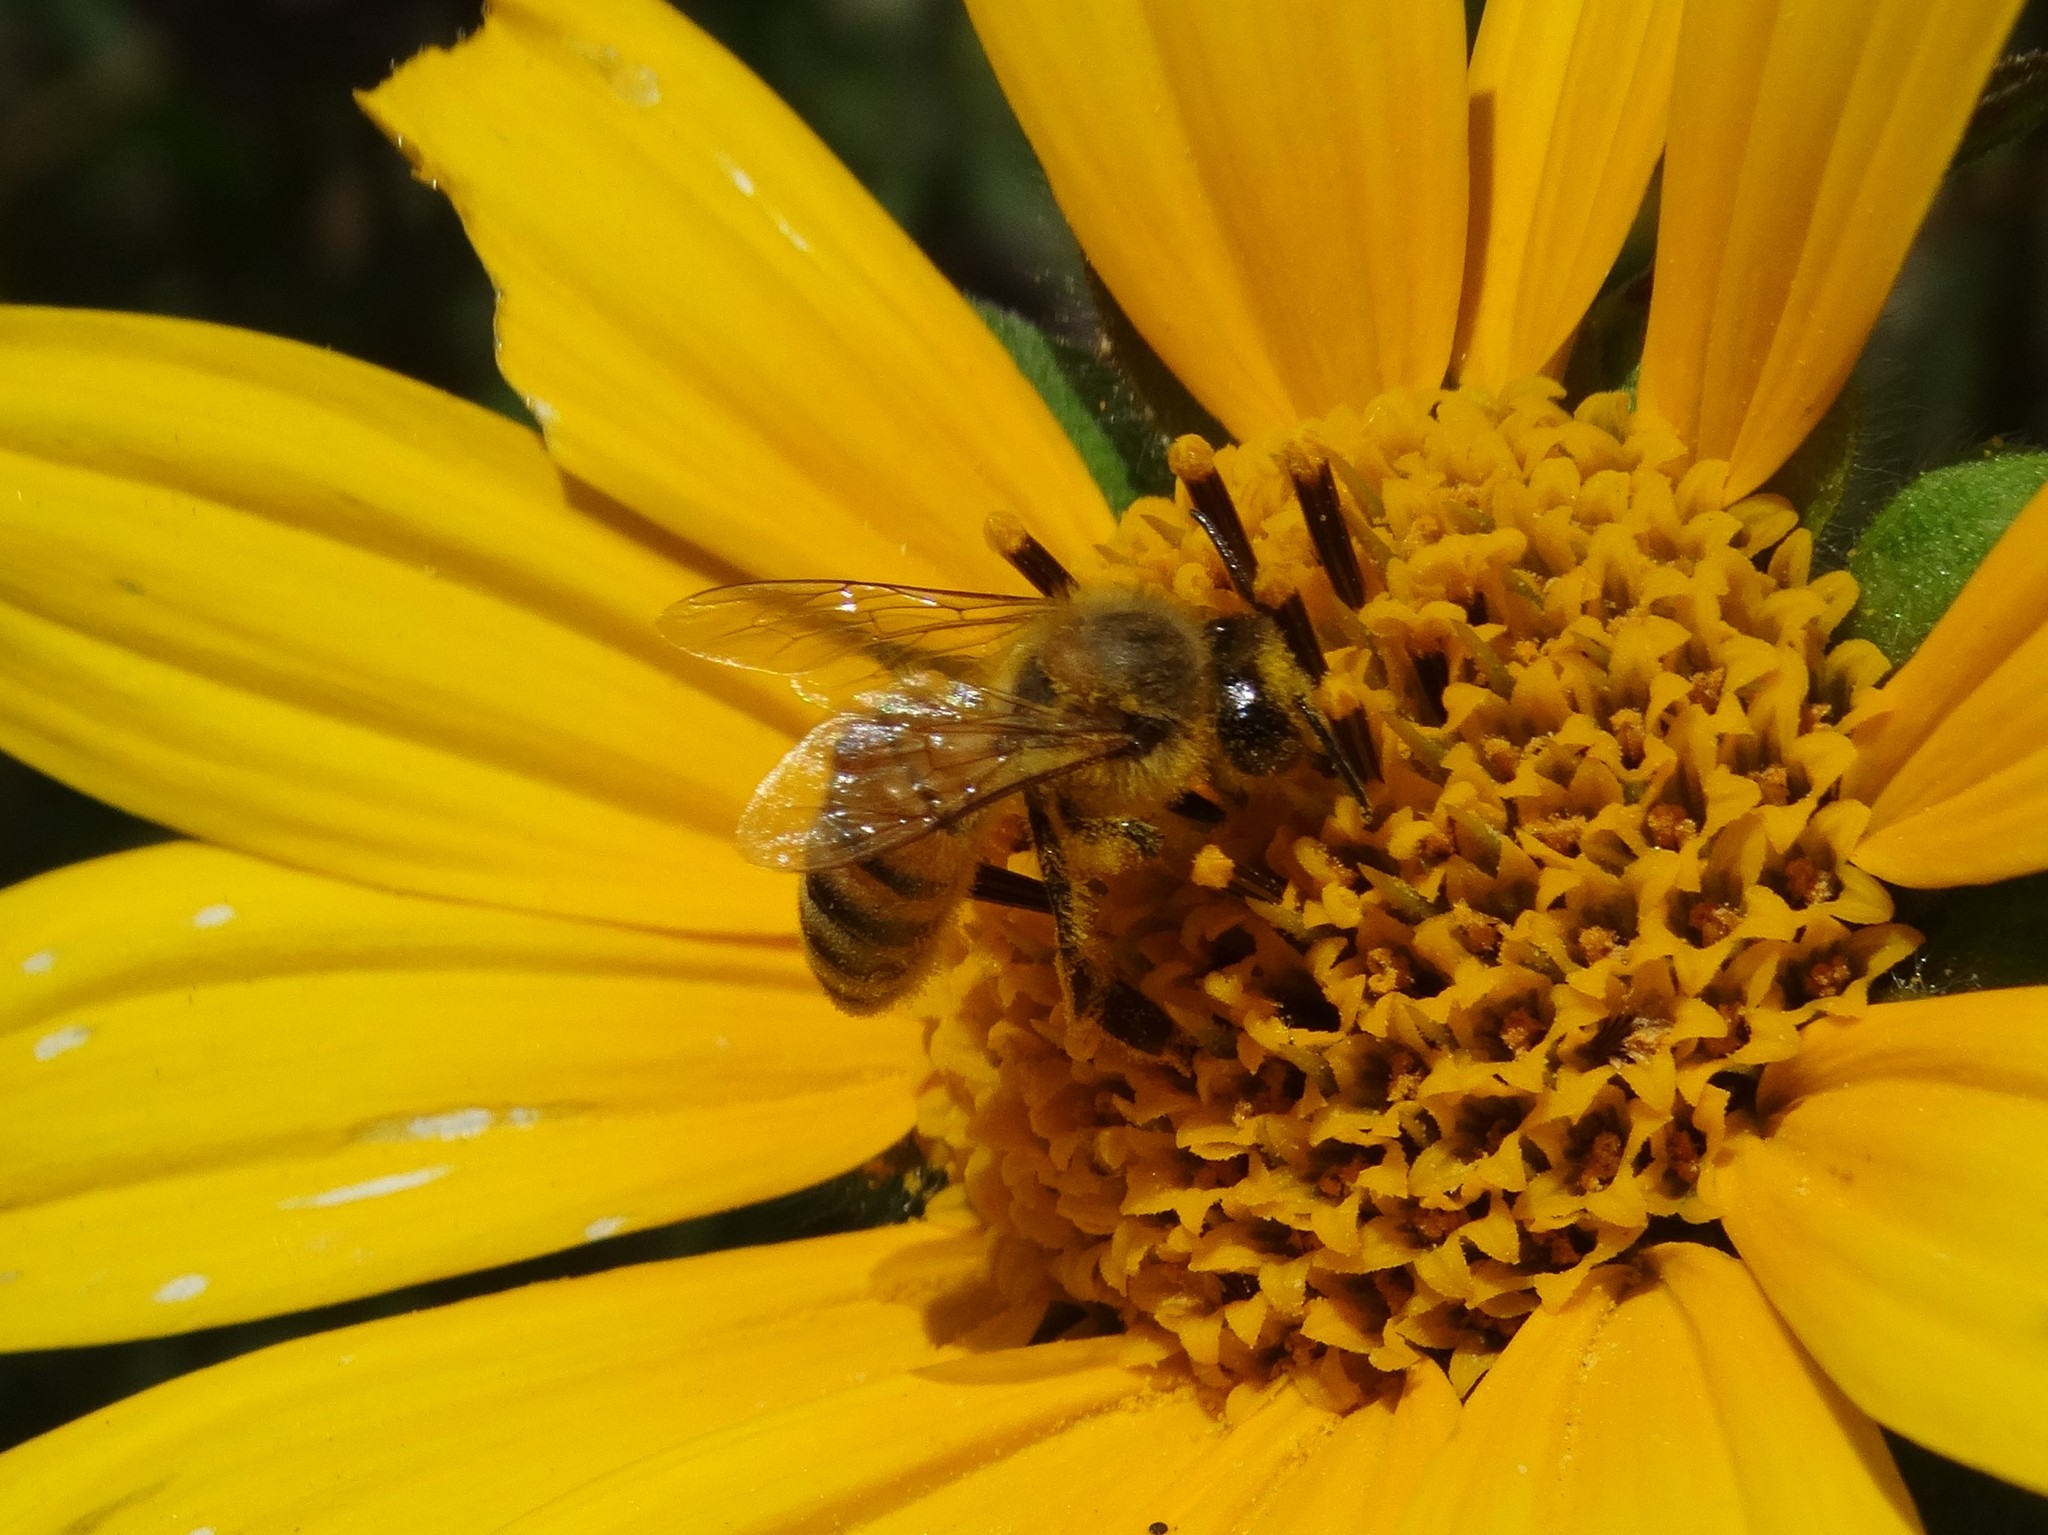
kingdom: Animalia
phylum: Arthropoda
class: Insecta
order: Hymenoptera
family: Apidae
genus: Apis
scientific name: Apis mellifera
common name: Honey bee
